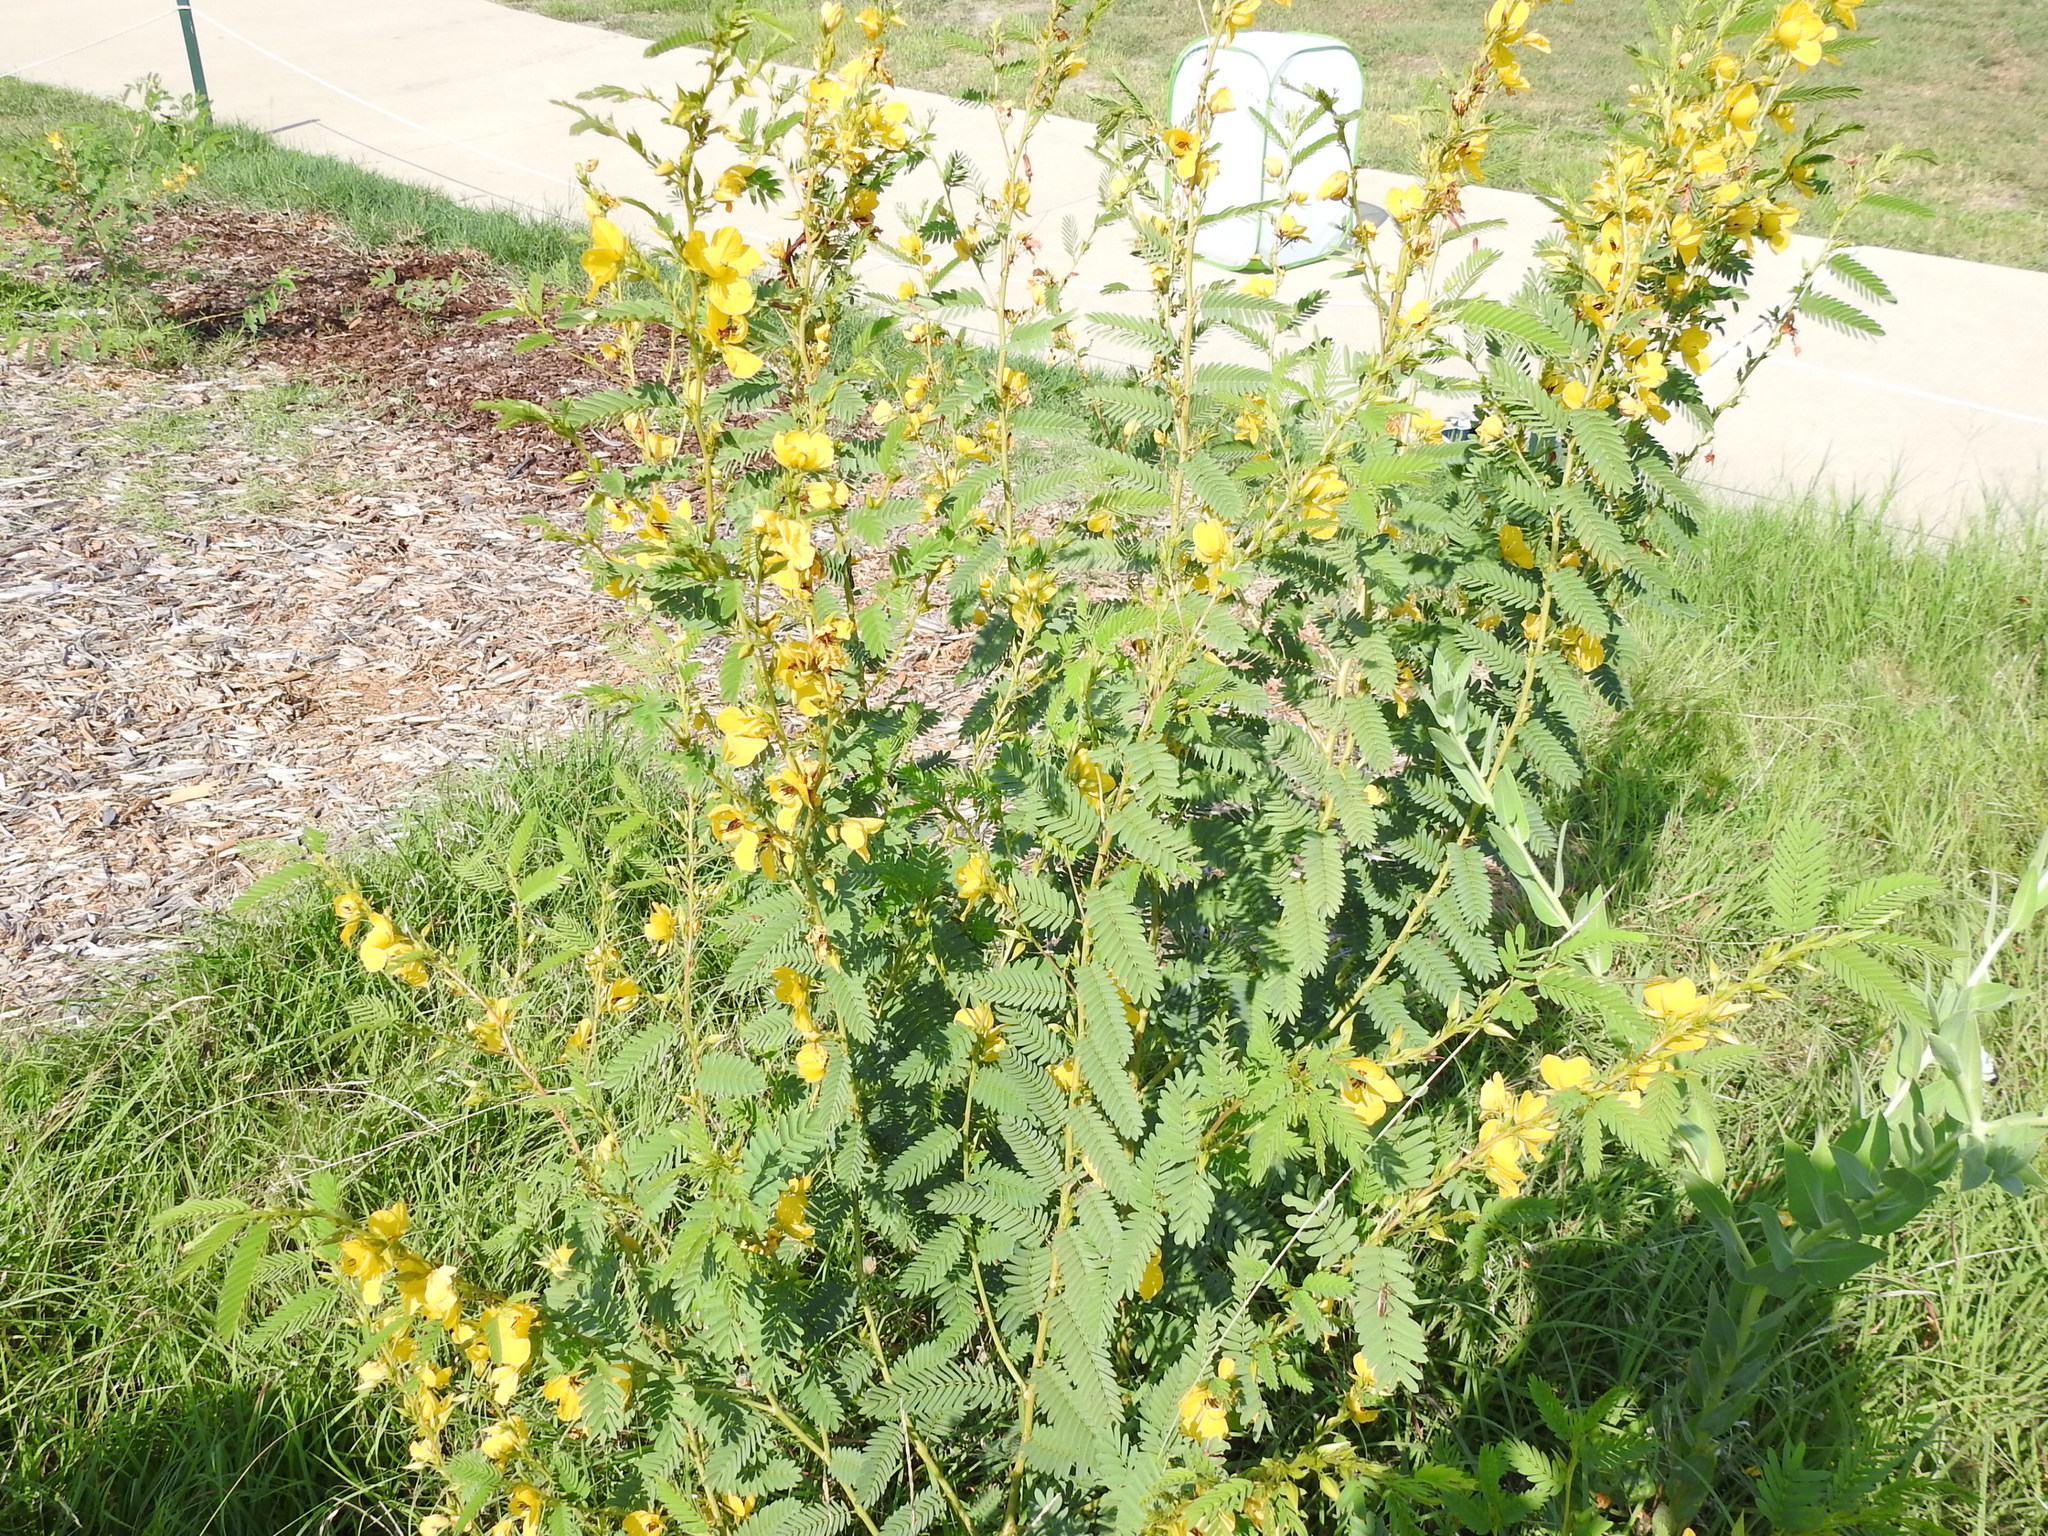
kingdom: Plantae
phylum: Tracheophyta
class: Magnoliopsida
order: Fabales
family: Fabaceae
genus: Chamaecrista
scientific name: Chamaecrista fasciculata
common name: Golden cassia
